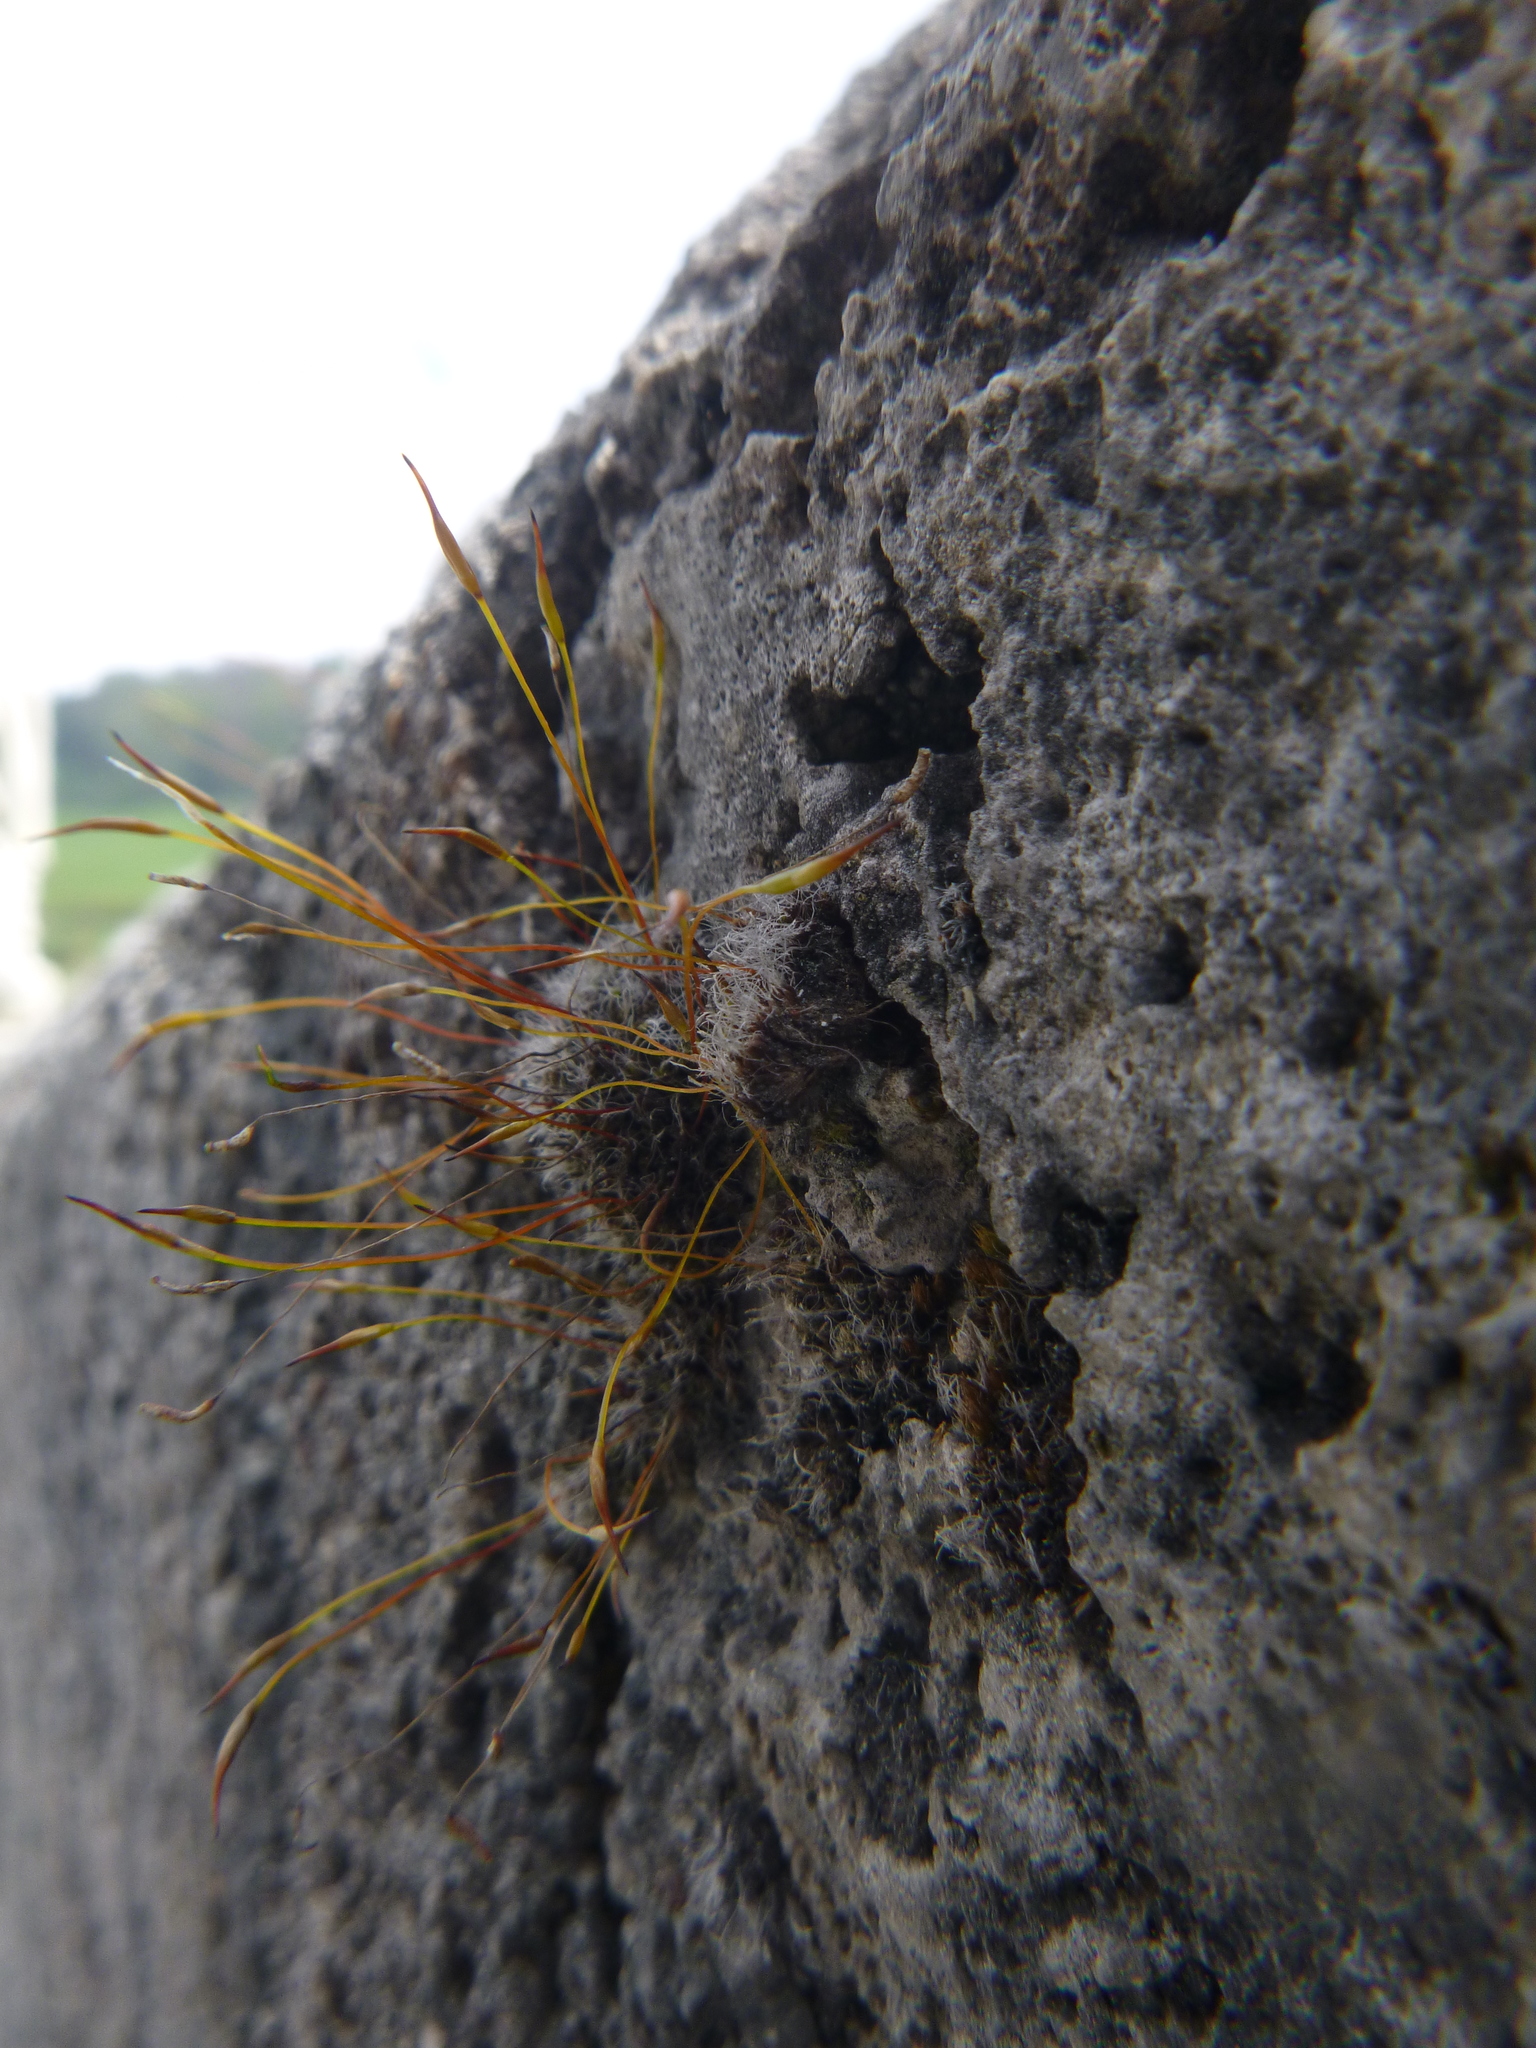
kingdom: Plantae
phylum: Bryophyta
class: Bryopsida
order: Pottiales
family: Pottiaceae
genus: Tortula
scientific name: Tortula muralis
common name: Wall screw-moss
